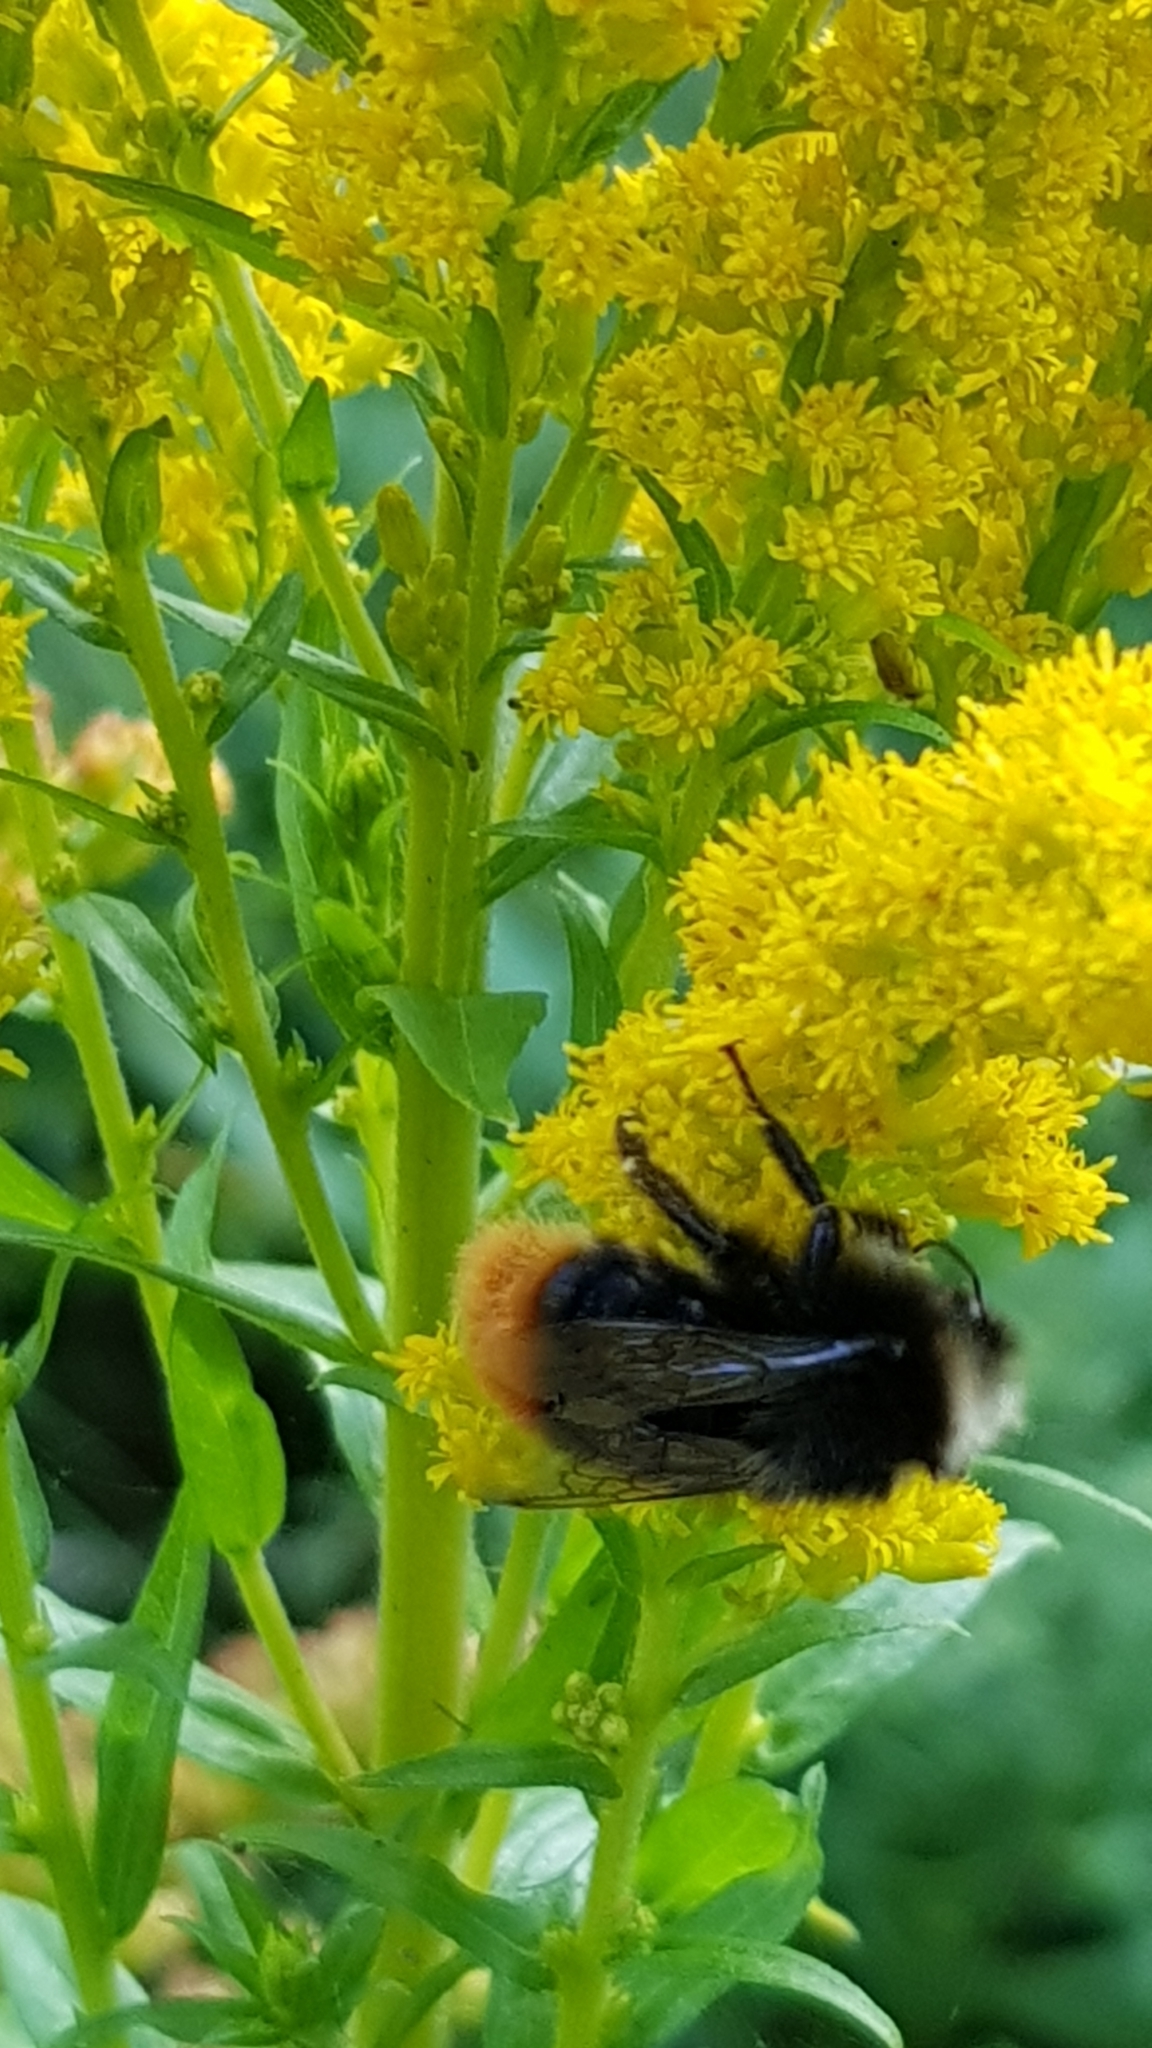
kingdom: Animalia
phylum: Arthropoda
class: Insecta
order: Hymenoptera
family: Apidae
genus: Bombus
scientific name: Bombus lapidarius
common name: Large red-tailed humble-bee
